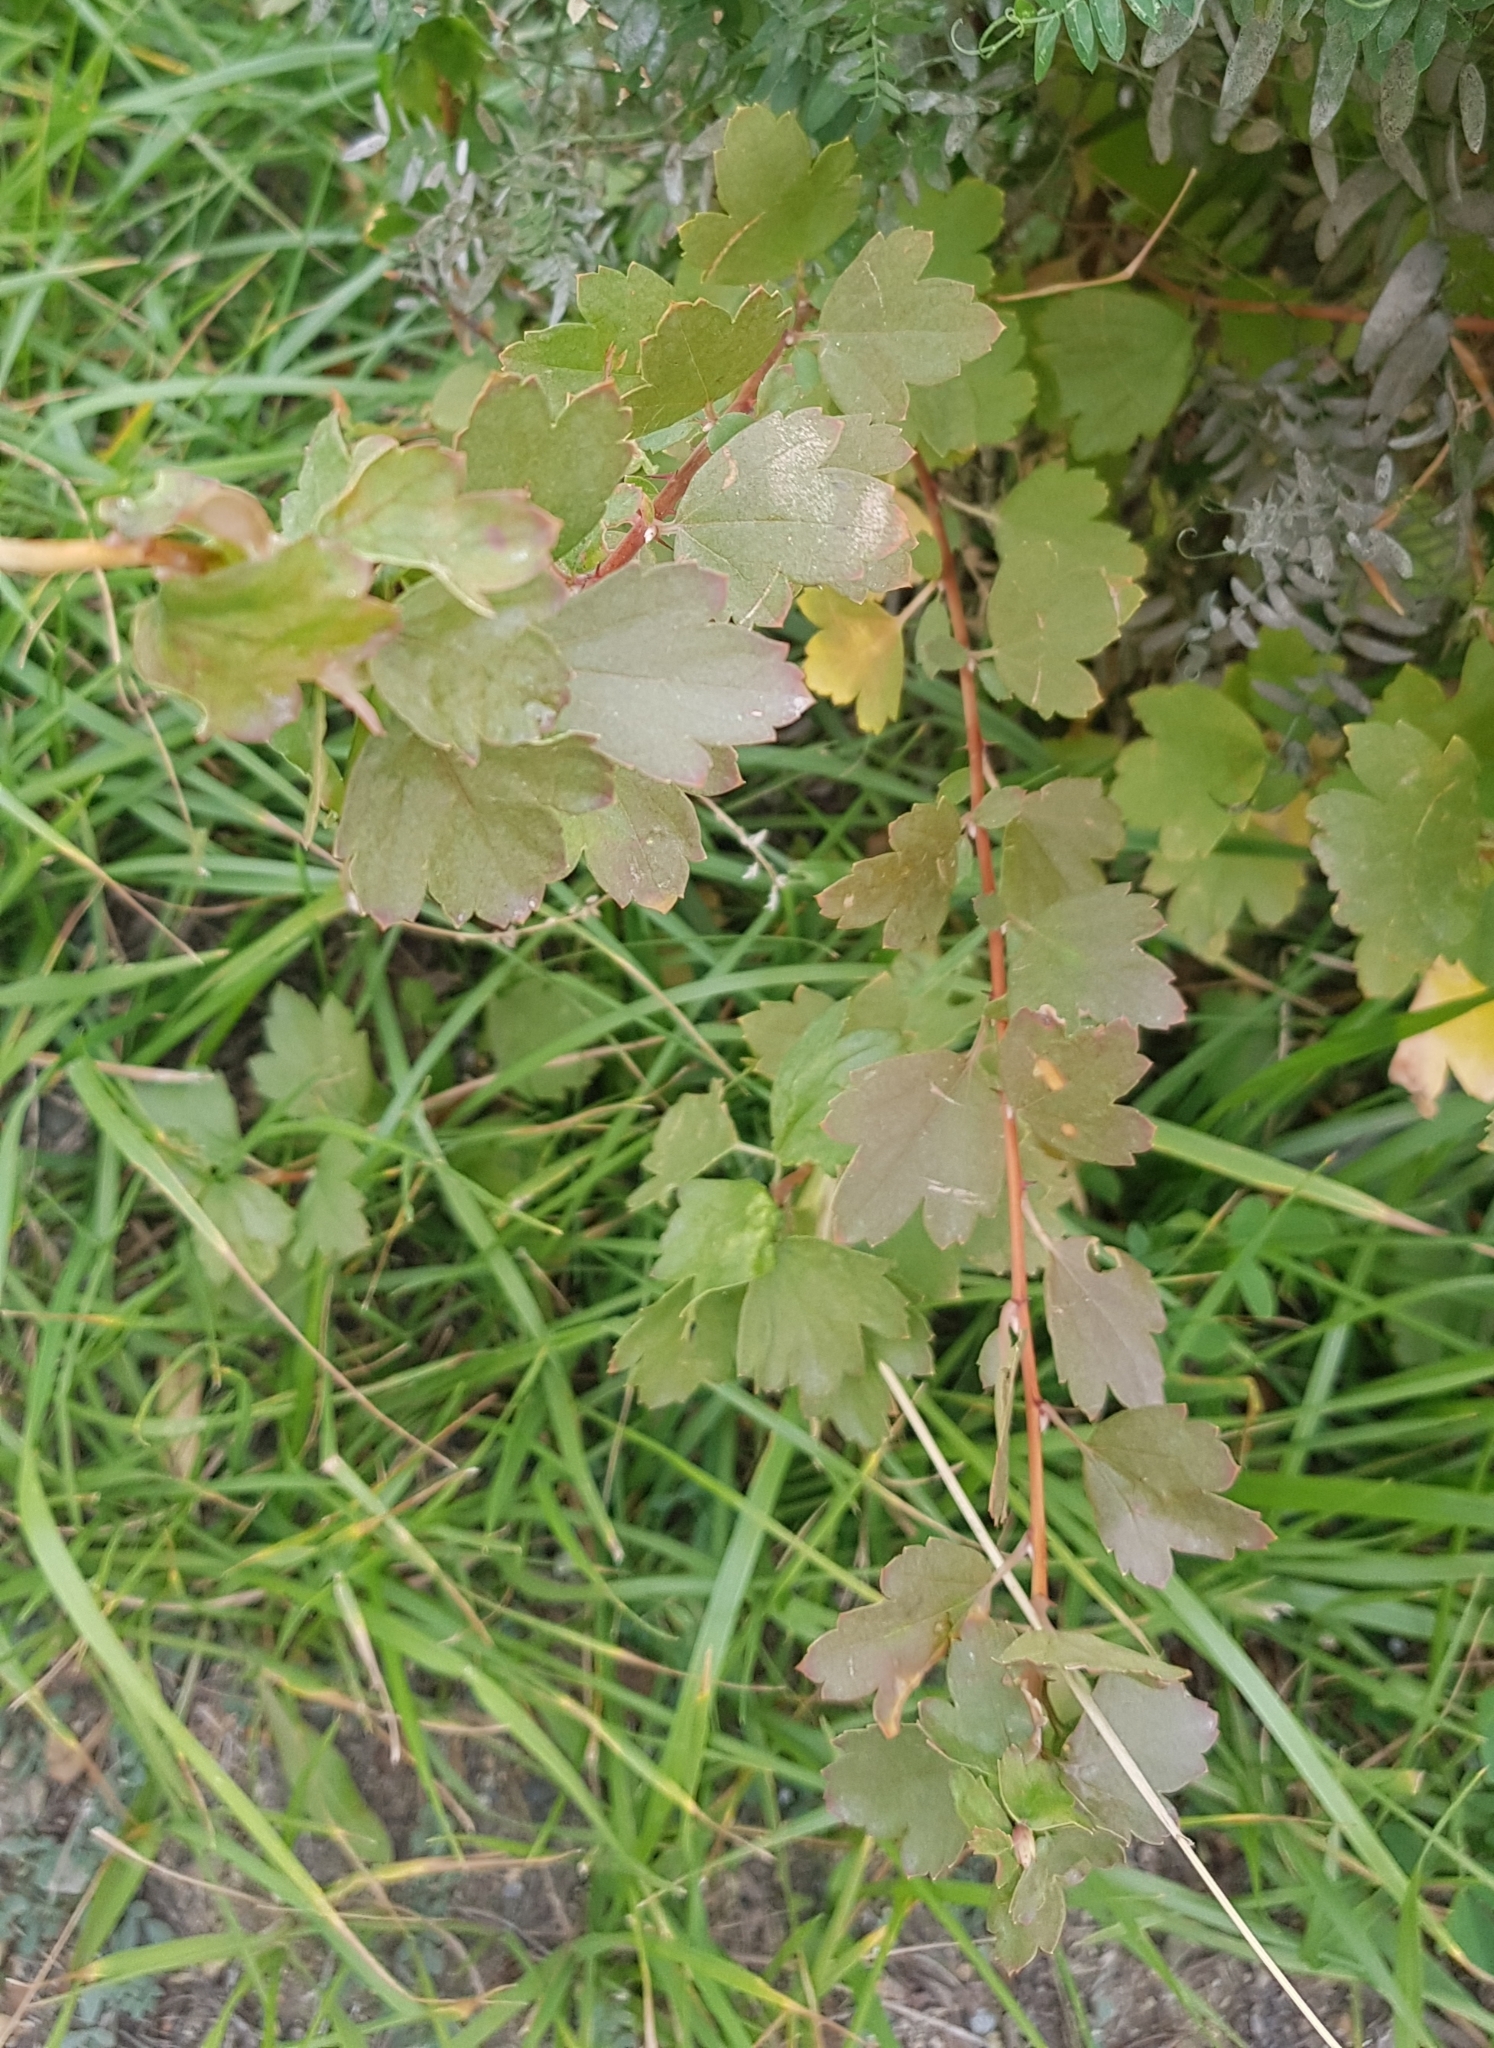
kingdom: Plantae
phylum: Tracheophyta
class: Magnoliopsida
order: Saxifragales
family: Grossulariaceae
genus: Ribes
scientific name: Ribes aciculare
